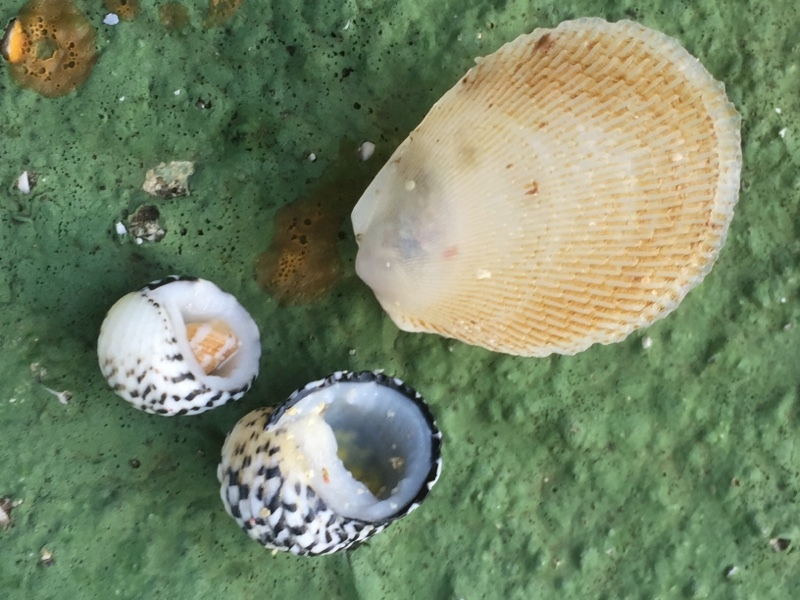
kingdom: Animalia
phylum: Mollusca
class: Gastropoda
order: Cycloneritida
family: Neritidae
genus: Nerita
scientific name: Nerita tessellata
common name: Checkered nerite
